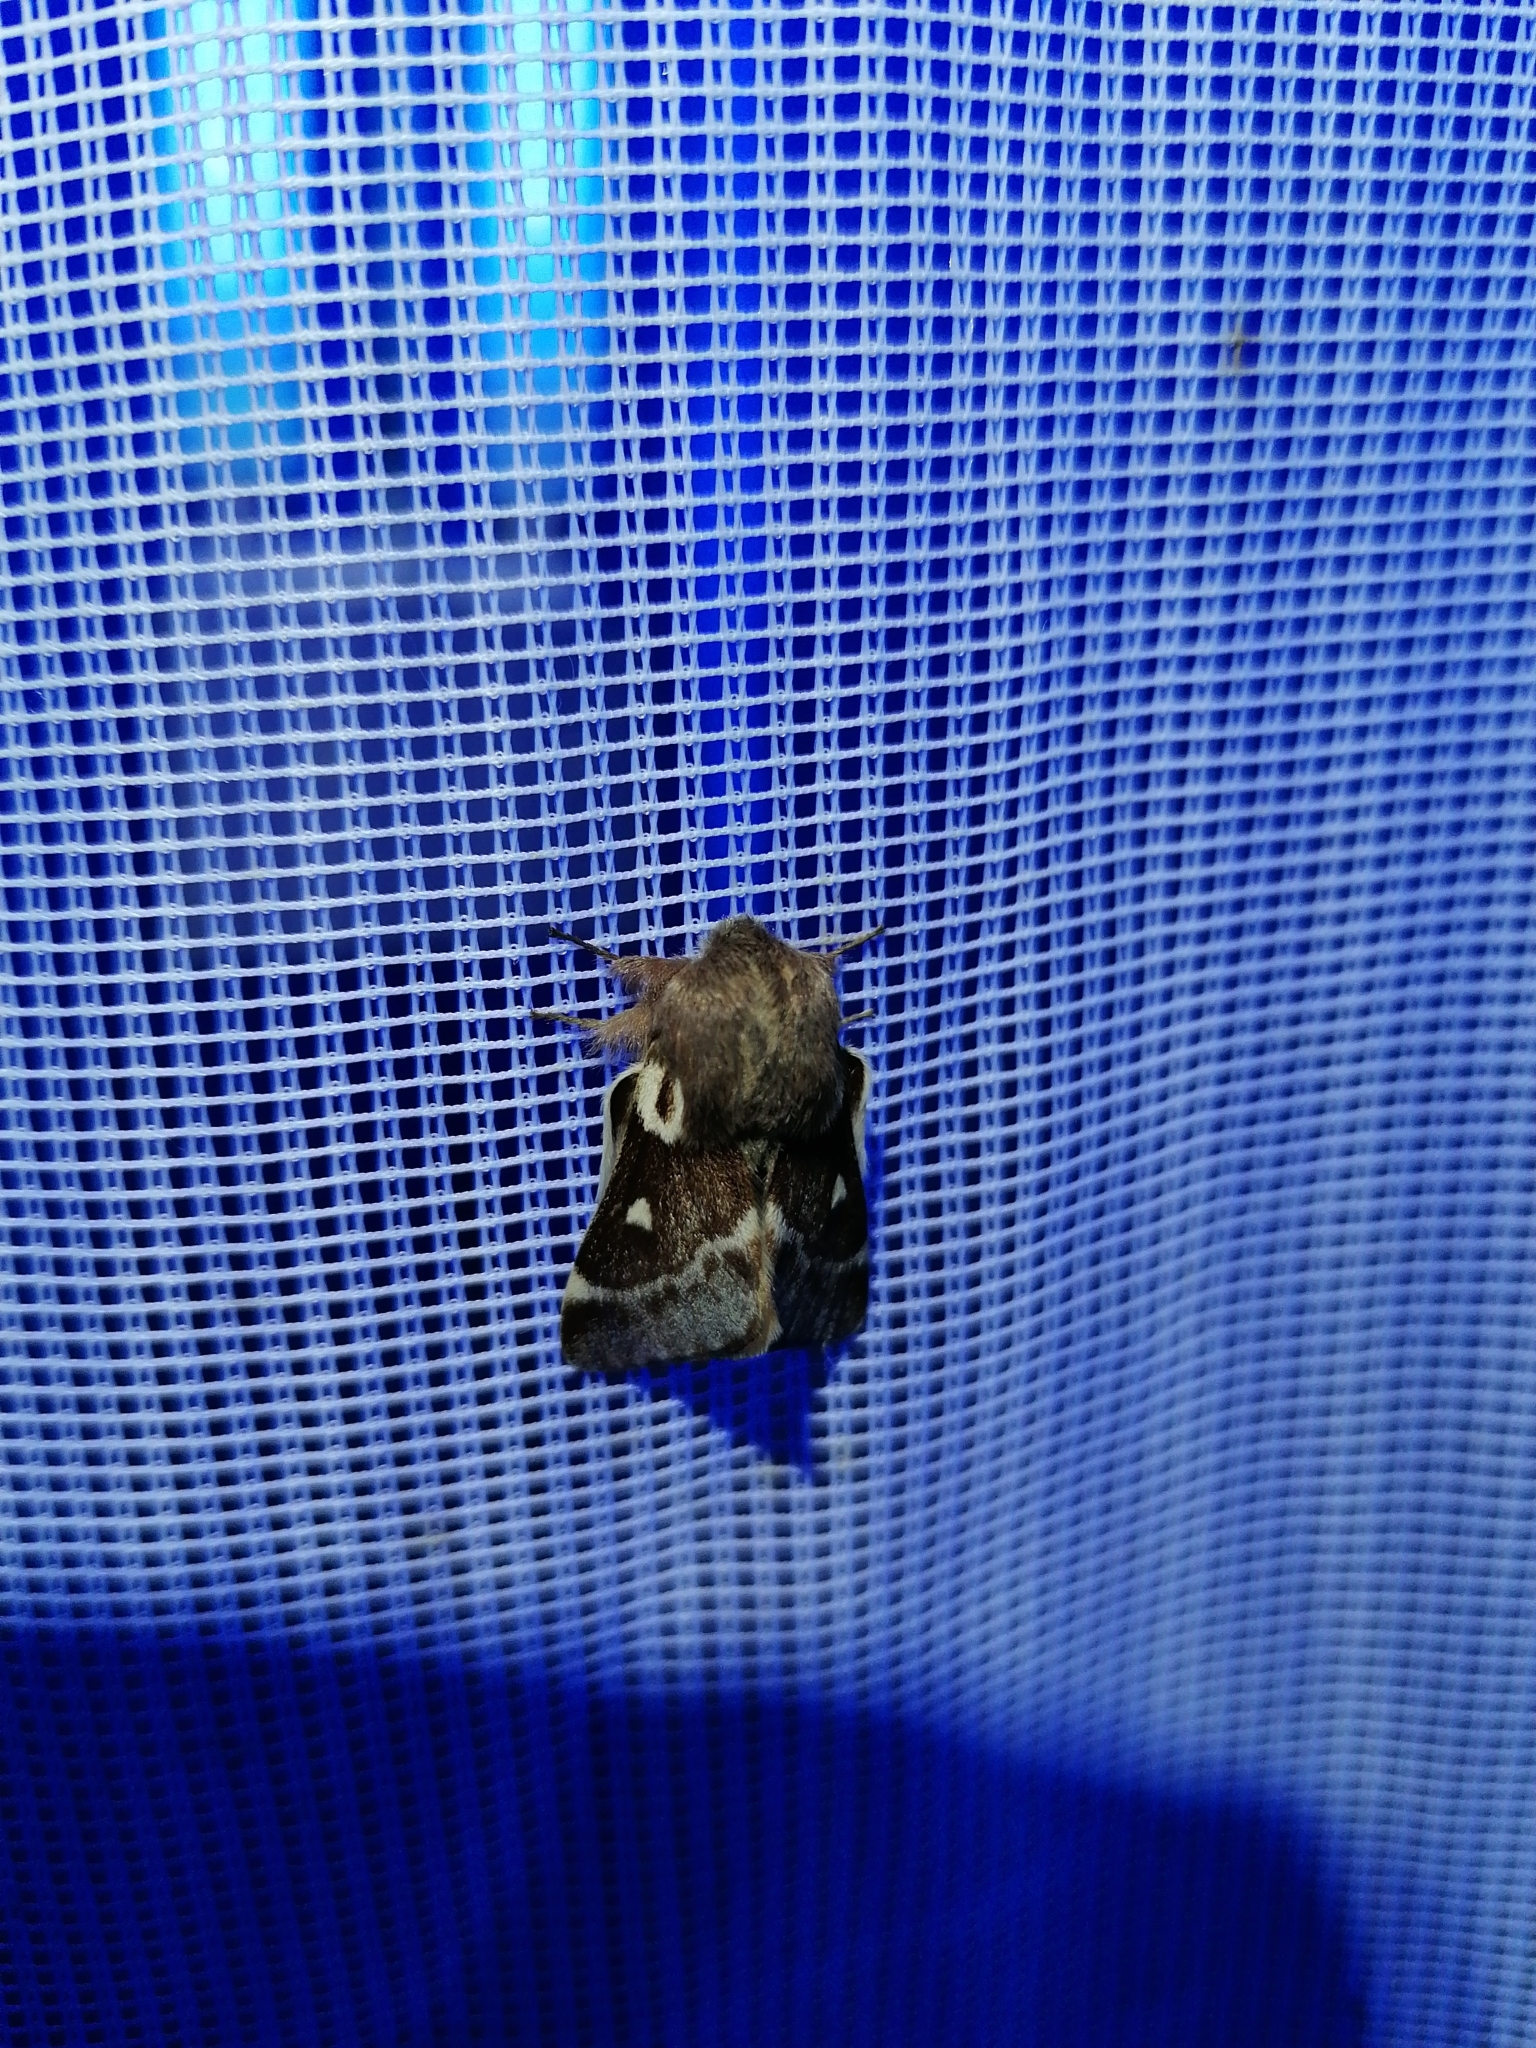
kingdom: Animalia
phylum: Arthropoda
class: Insecta
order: Lepidoptera
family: Lasiocampidae
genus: Eriogaster
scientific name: Eriogaster lanestris
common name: Small eggar
